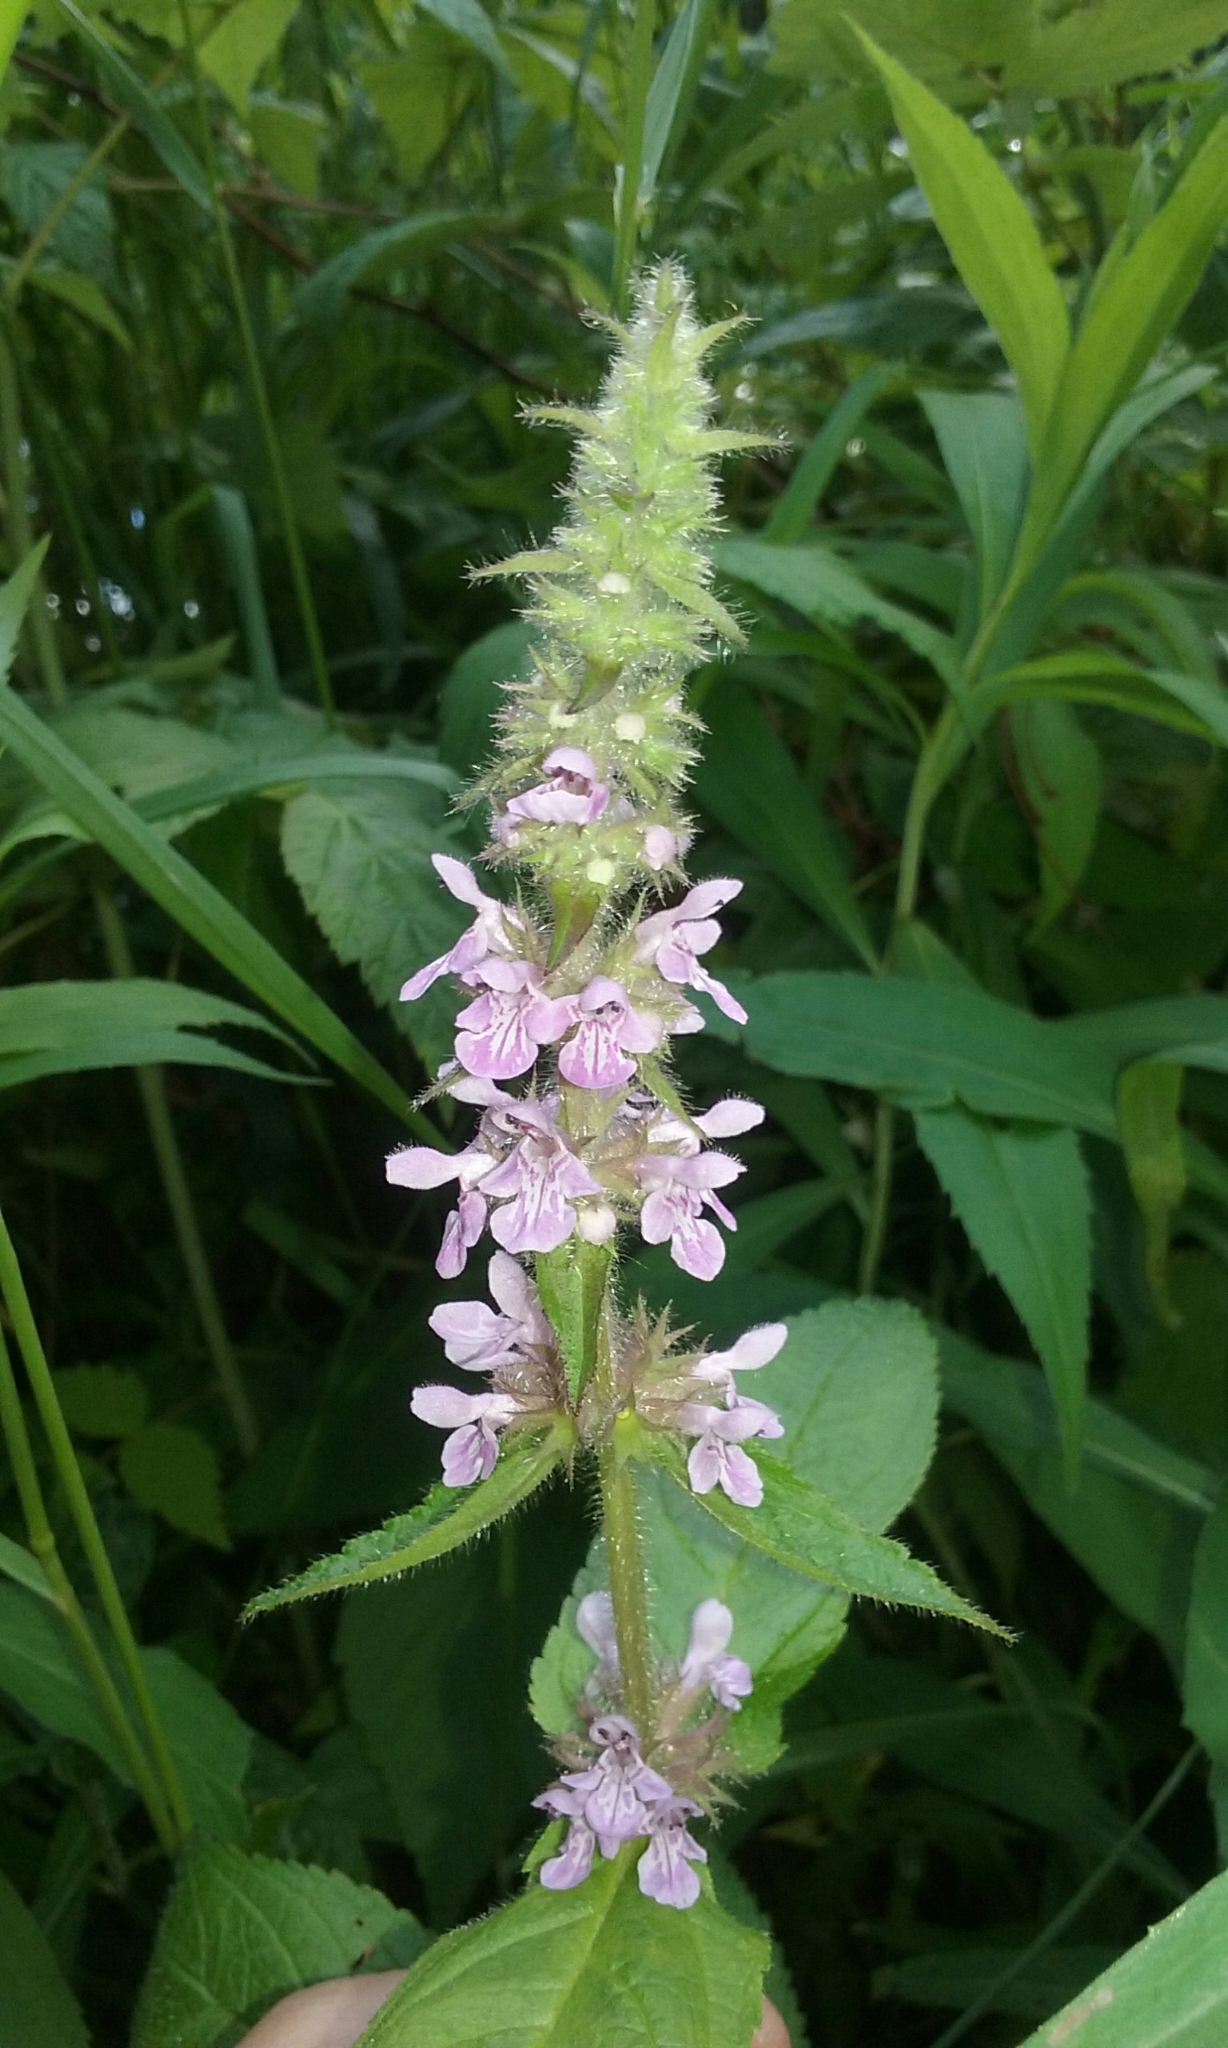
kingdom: Plantae
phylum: Tracheophyta
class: Magnoliopsida
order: Lamiales
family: Lamiaceae
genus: Stachys
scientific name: Stachys palustris
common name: Marsh woundwort
